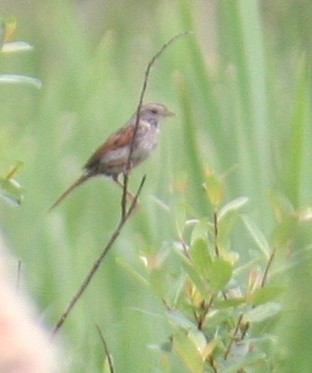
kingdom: Animalia
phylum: Chordata
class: Aves
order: Passeriformes
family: Passerellidae
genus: Melospiza
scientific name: Melospiza georgiana
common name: Swamp sparrow
